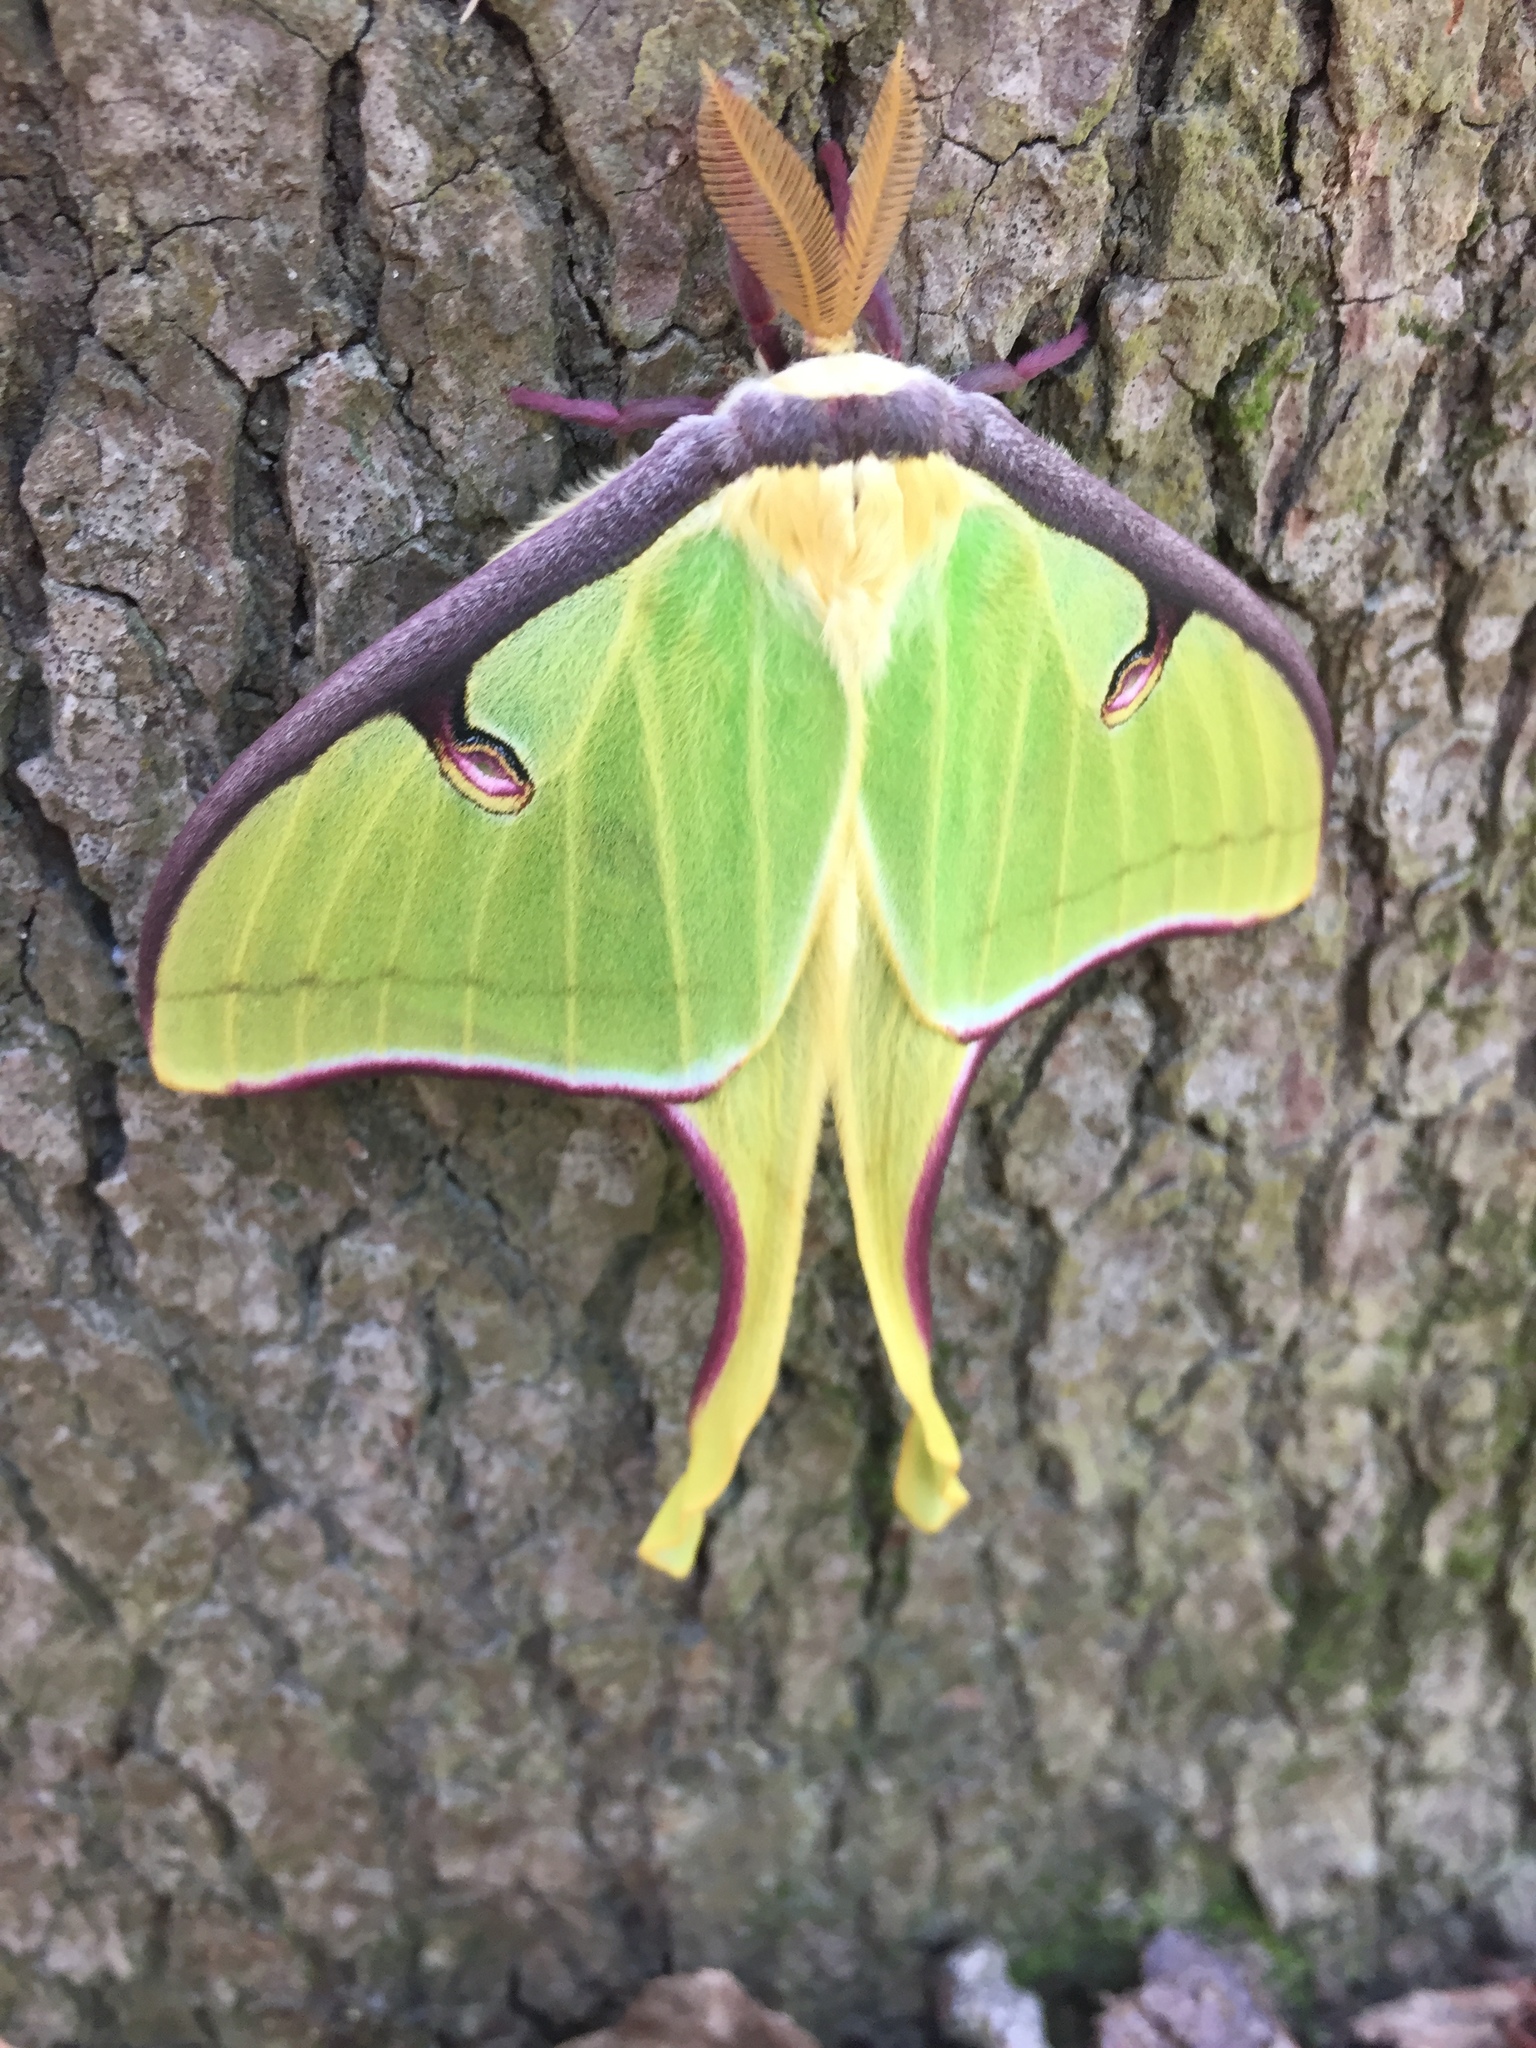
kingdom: Animalia
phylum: Arthropoda
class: Insecta
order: Lepidoptera
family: Saturniidae
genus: Actias
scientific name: Actias luna
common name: Luna moth
